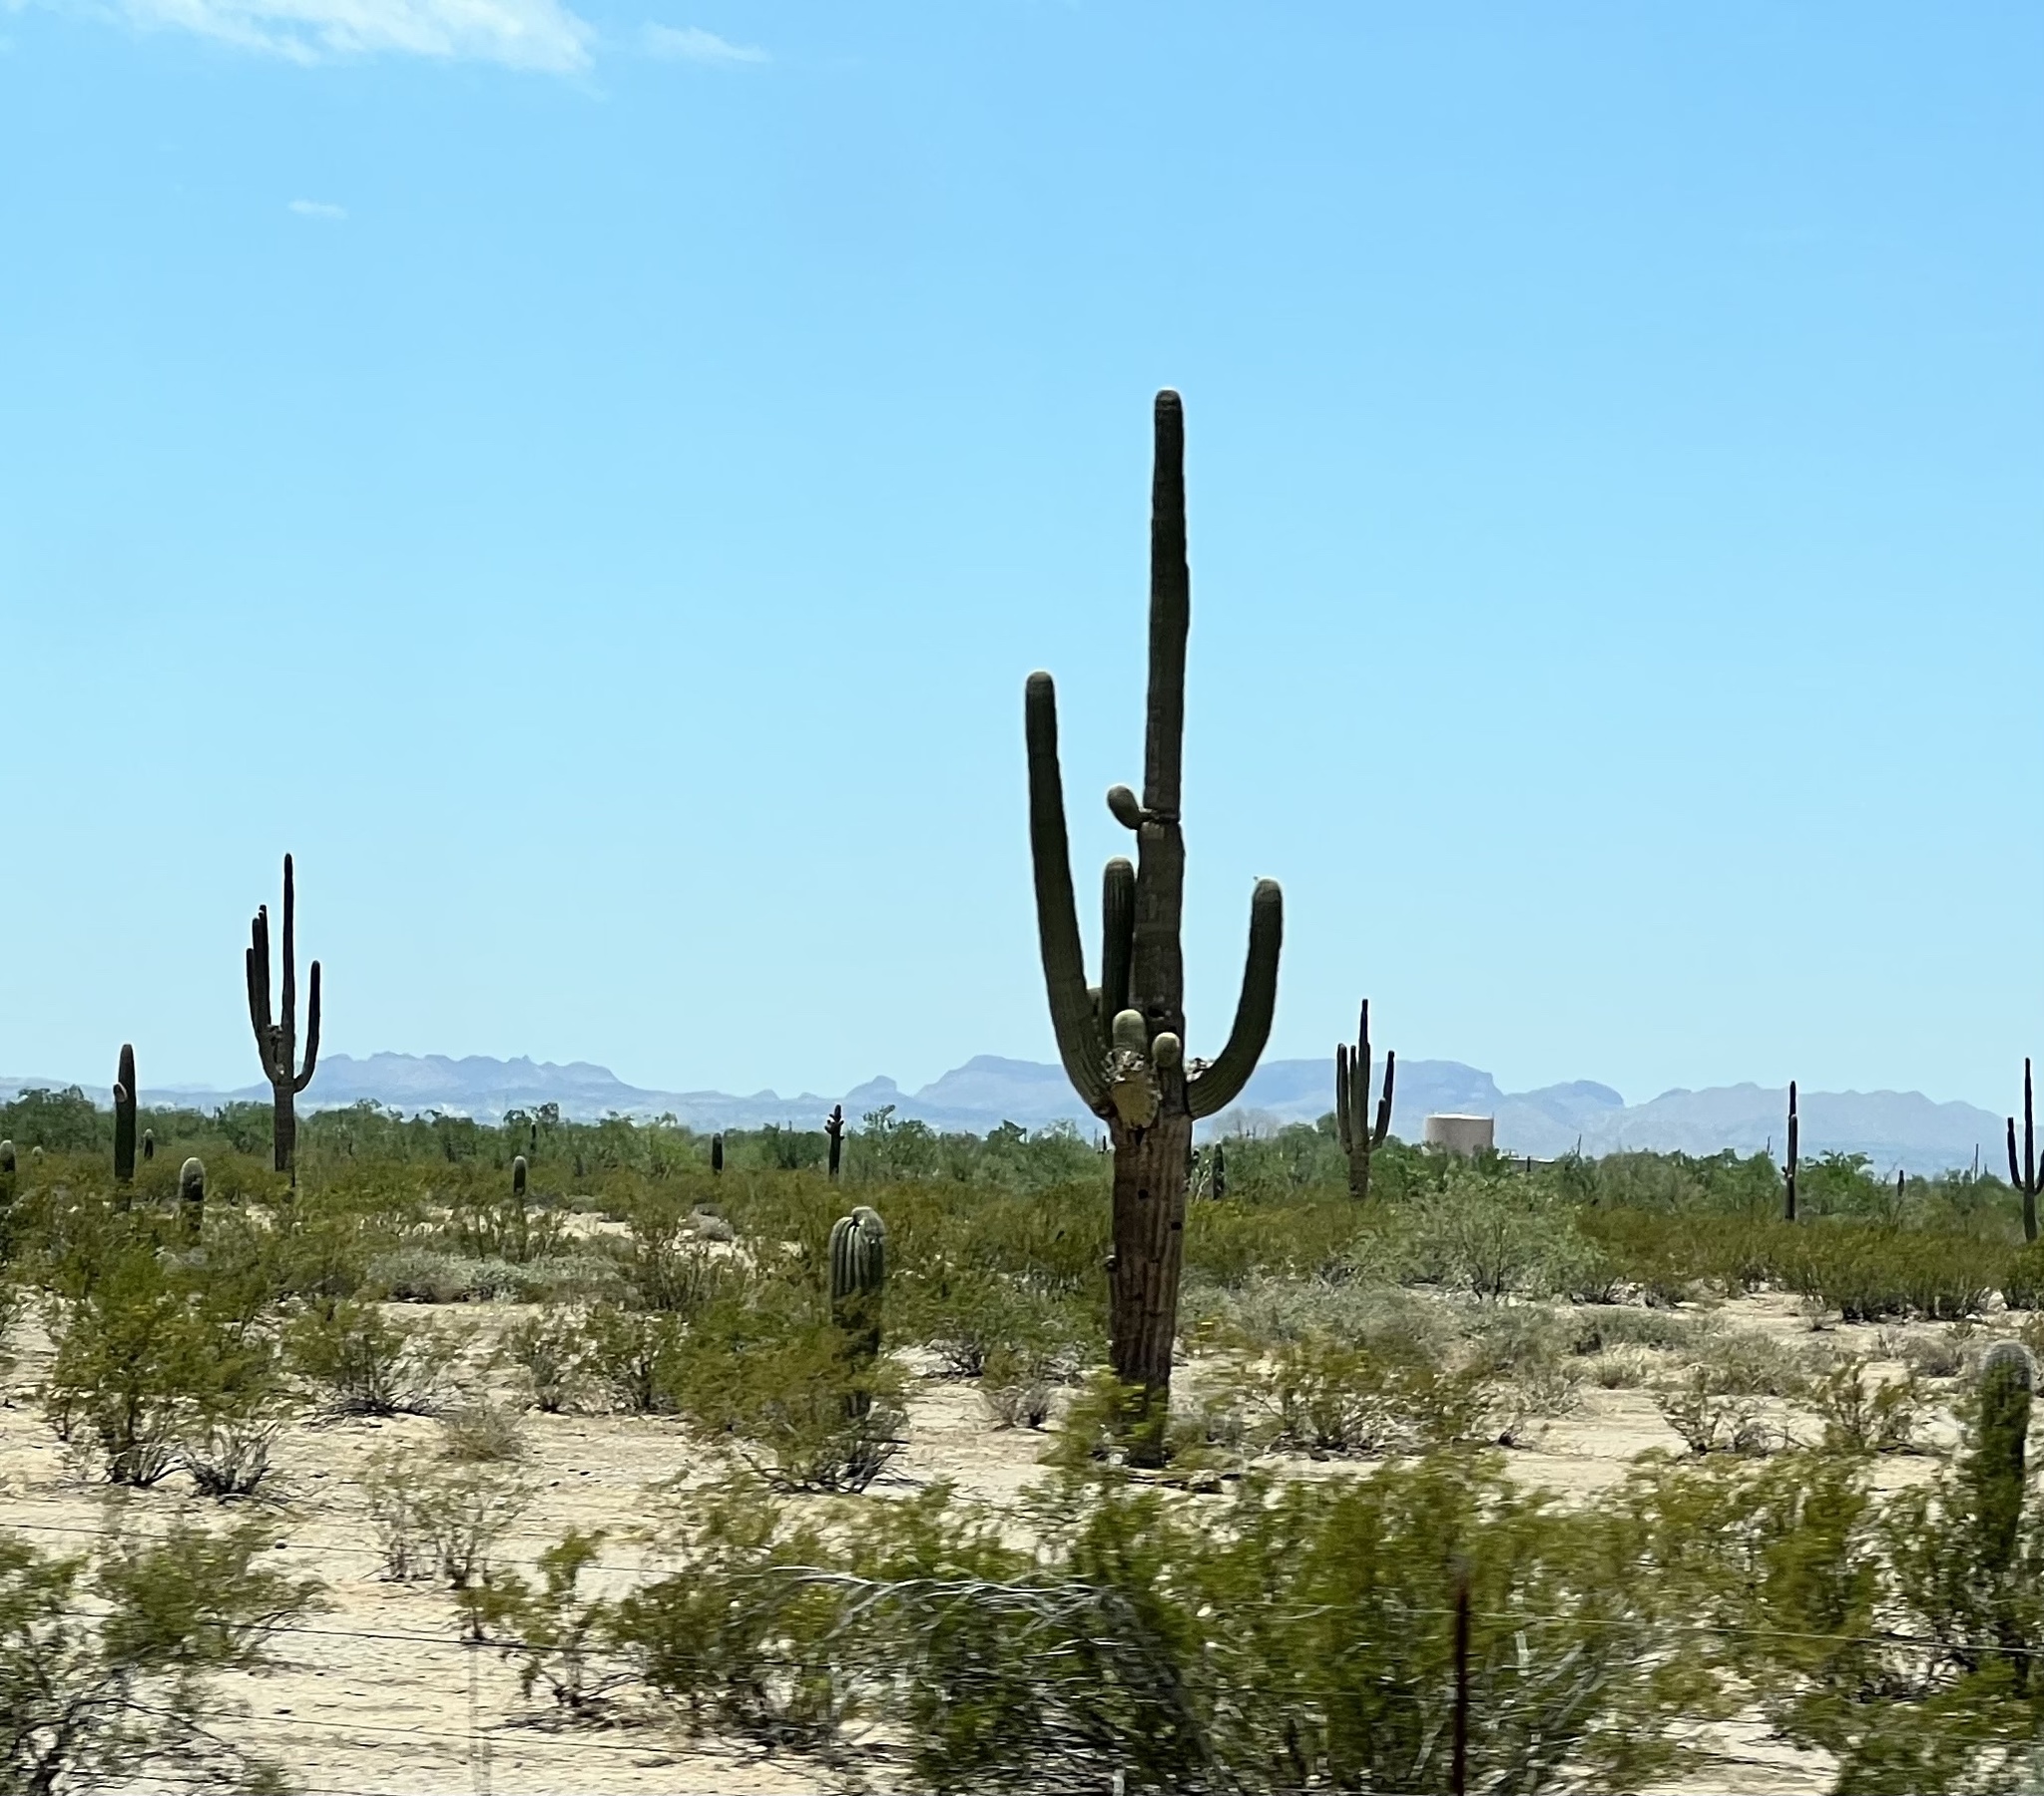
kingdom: Plantae
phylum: Tracheophyta
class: Magnoliopsida
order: Caryophyllales
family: Cactaceae
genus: Carnegiea
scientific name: Carnegiea gigantea
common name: Saguaro
